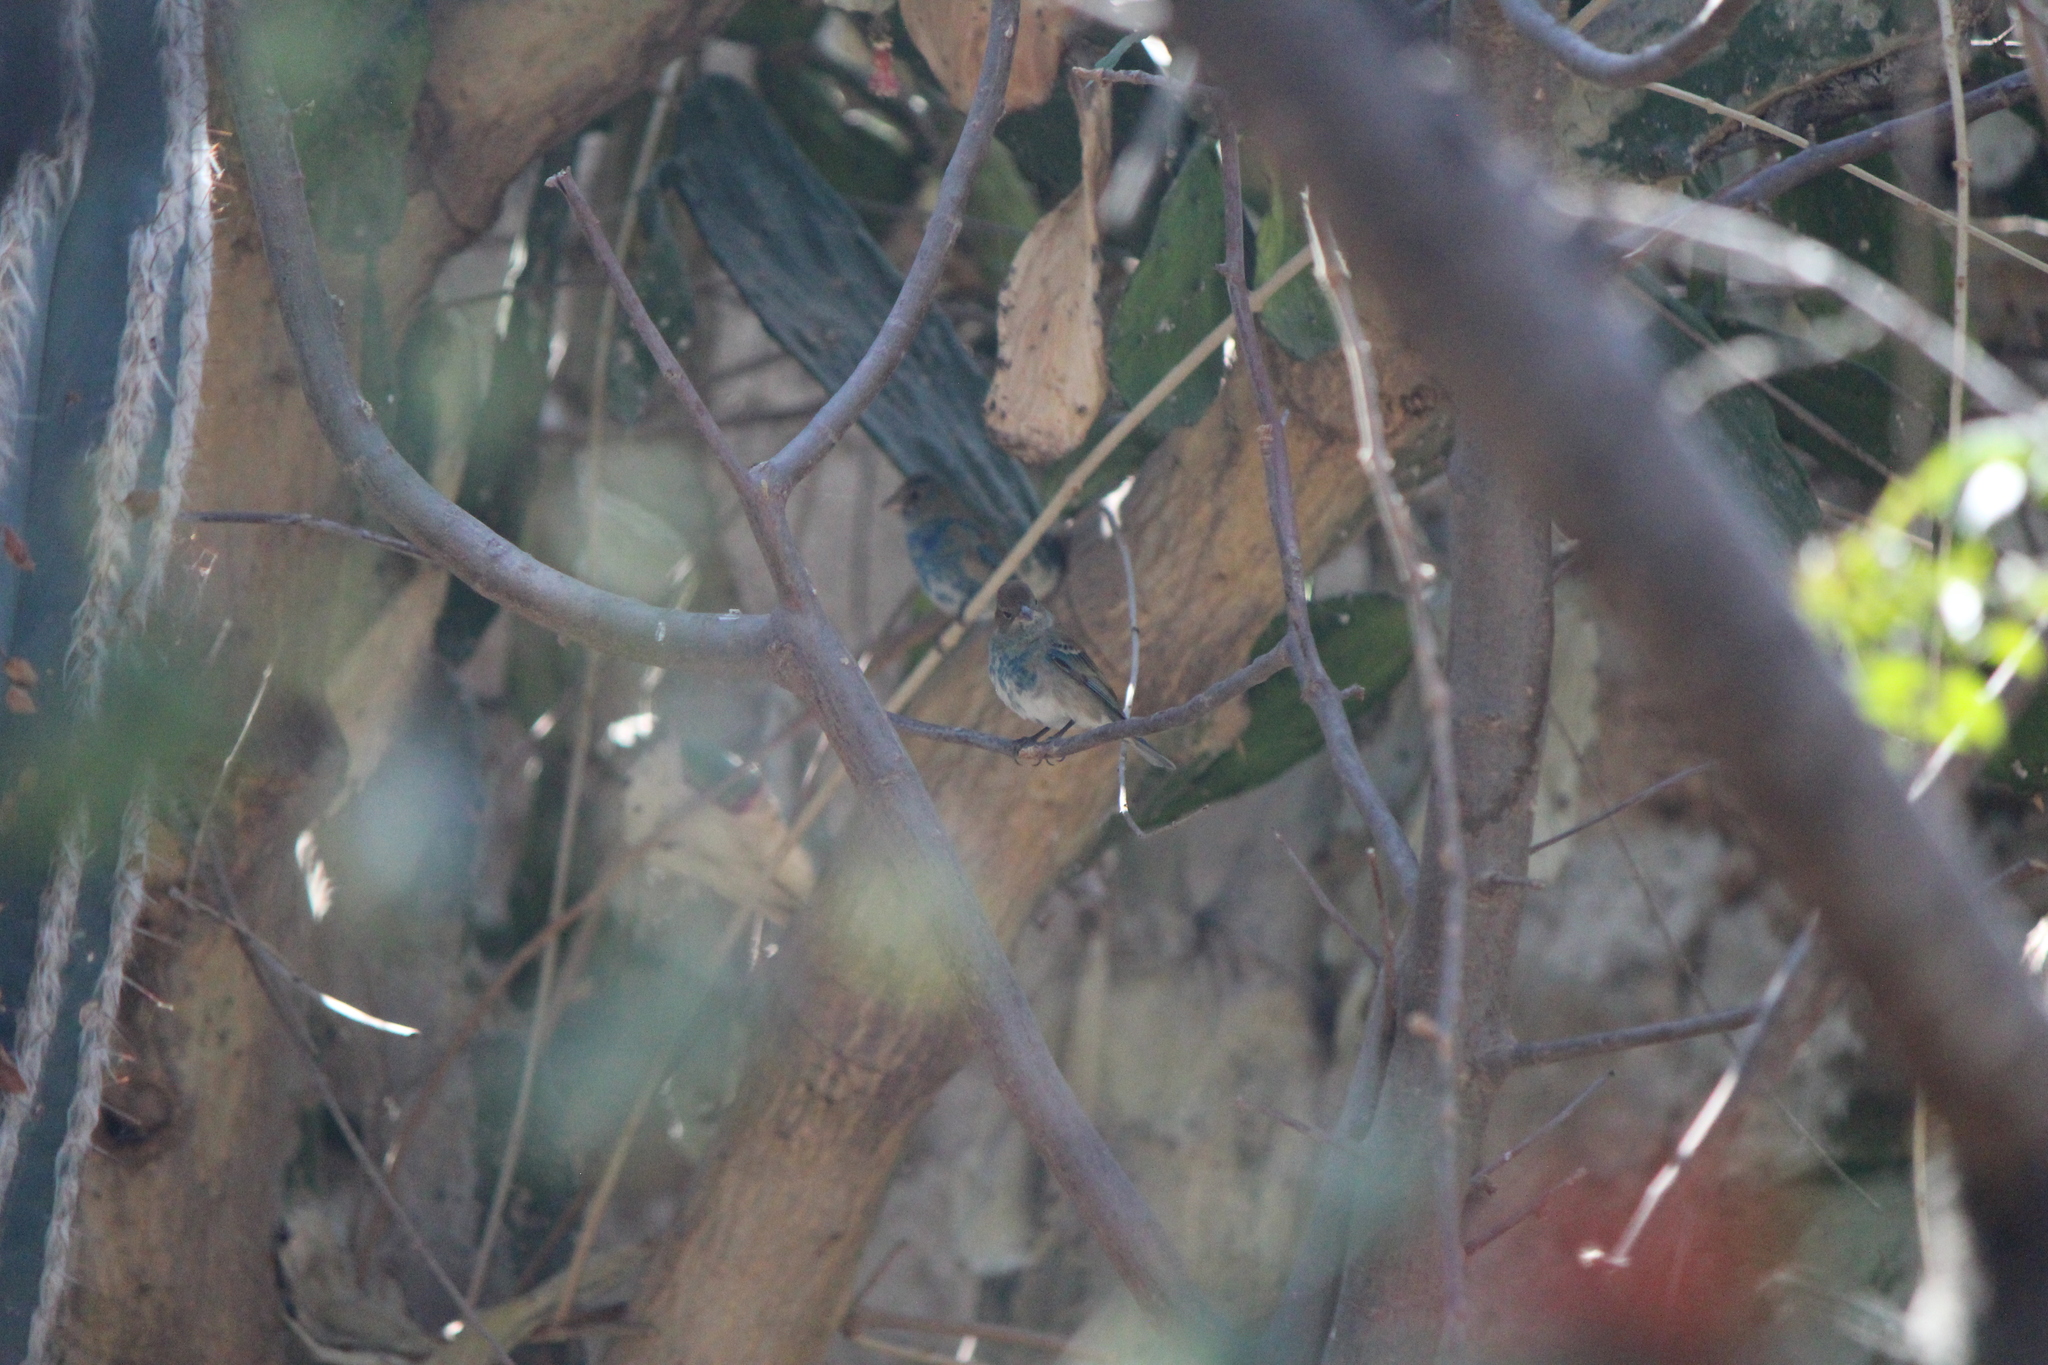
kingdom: Animalia
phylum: Chordata
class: Aves
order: Passeriformes
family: Cardinalidae
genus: Passerina
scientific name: Passerina cyanea
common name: Indigo bunting
